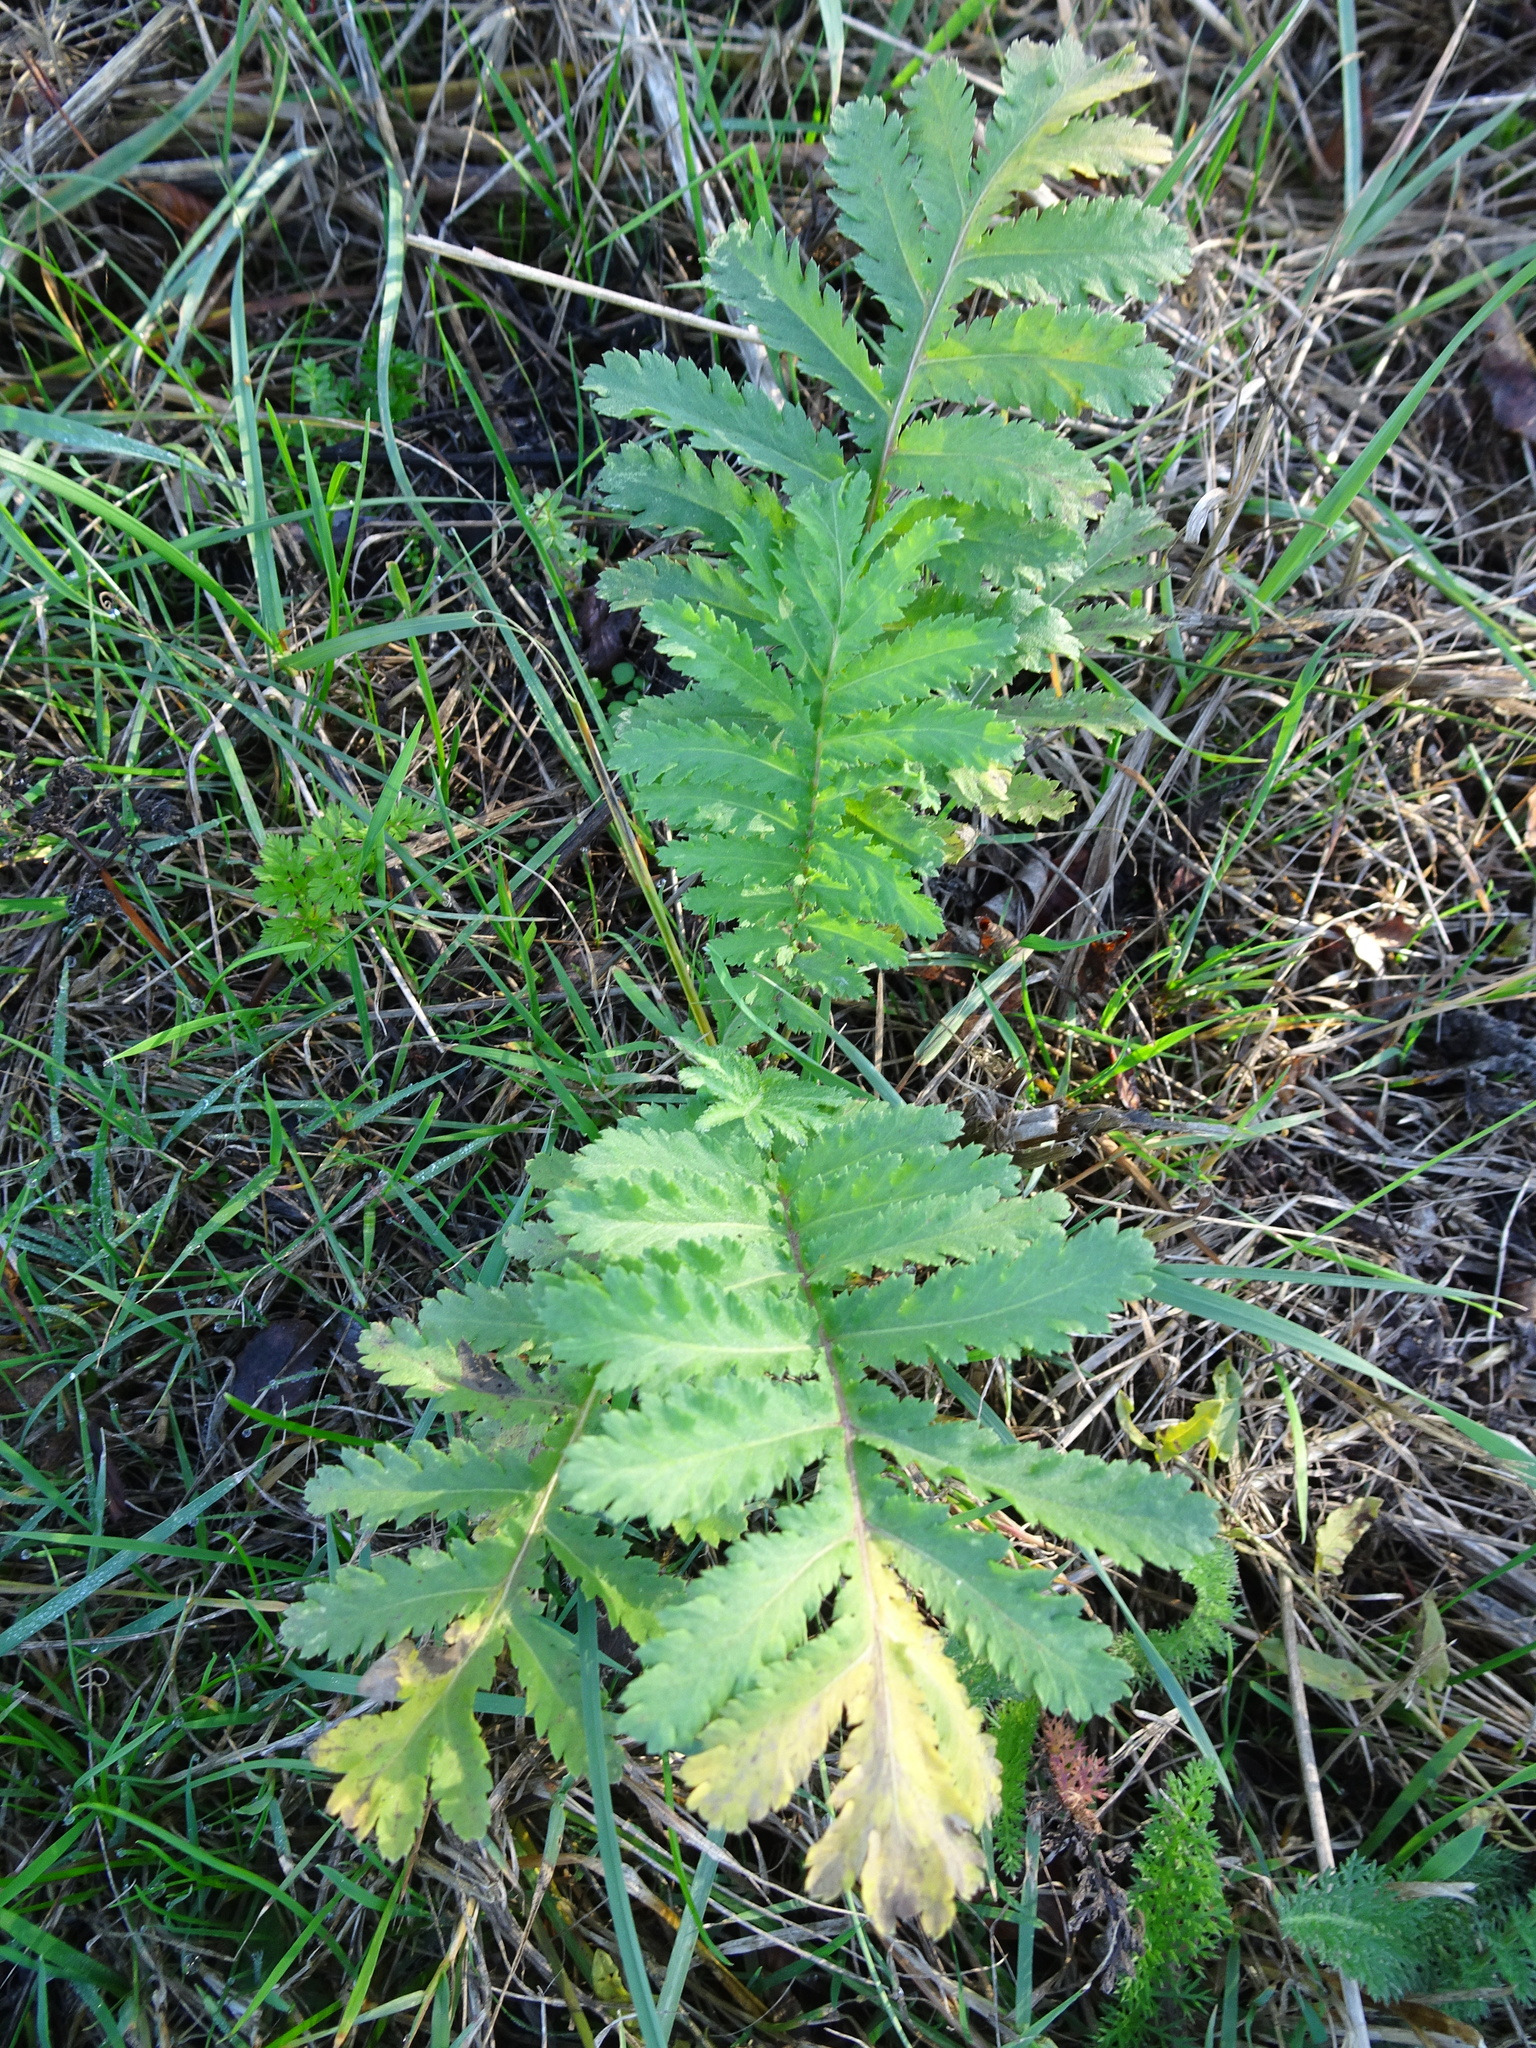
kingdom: Plantae
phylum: Tracheophyta
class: Magnoliopsida
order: Rosales
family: Rosaceae
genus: Argentina
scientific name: Argentina anserina
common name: Common silverweed
